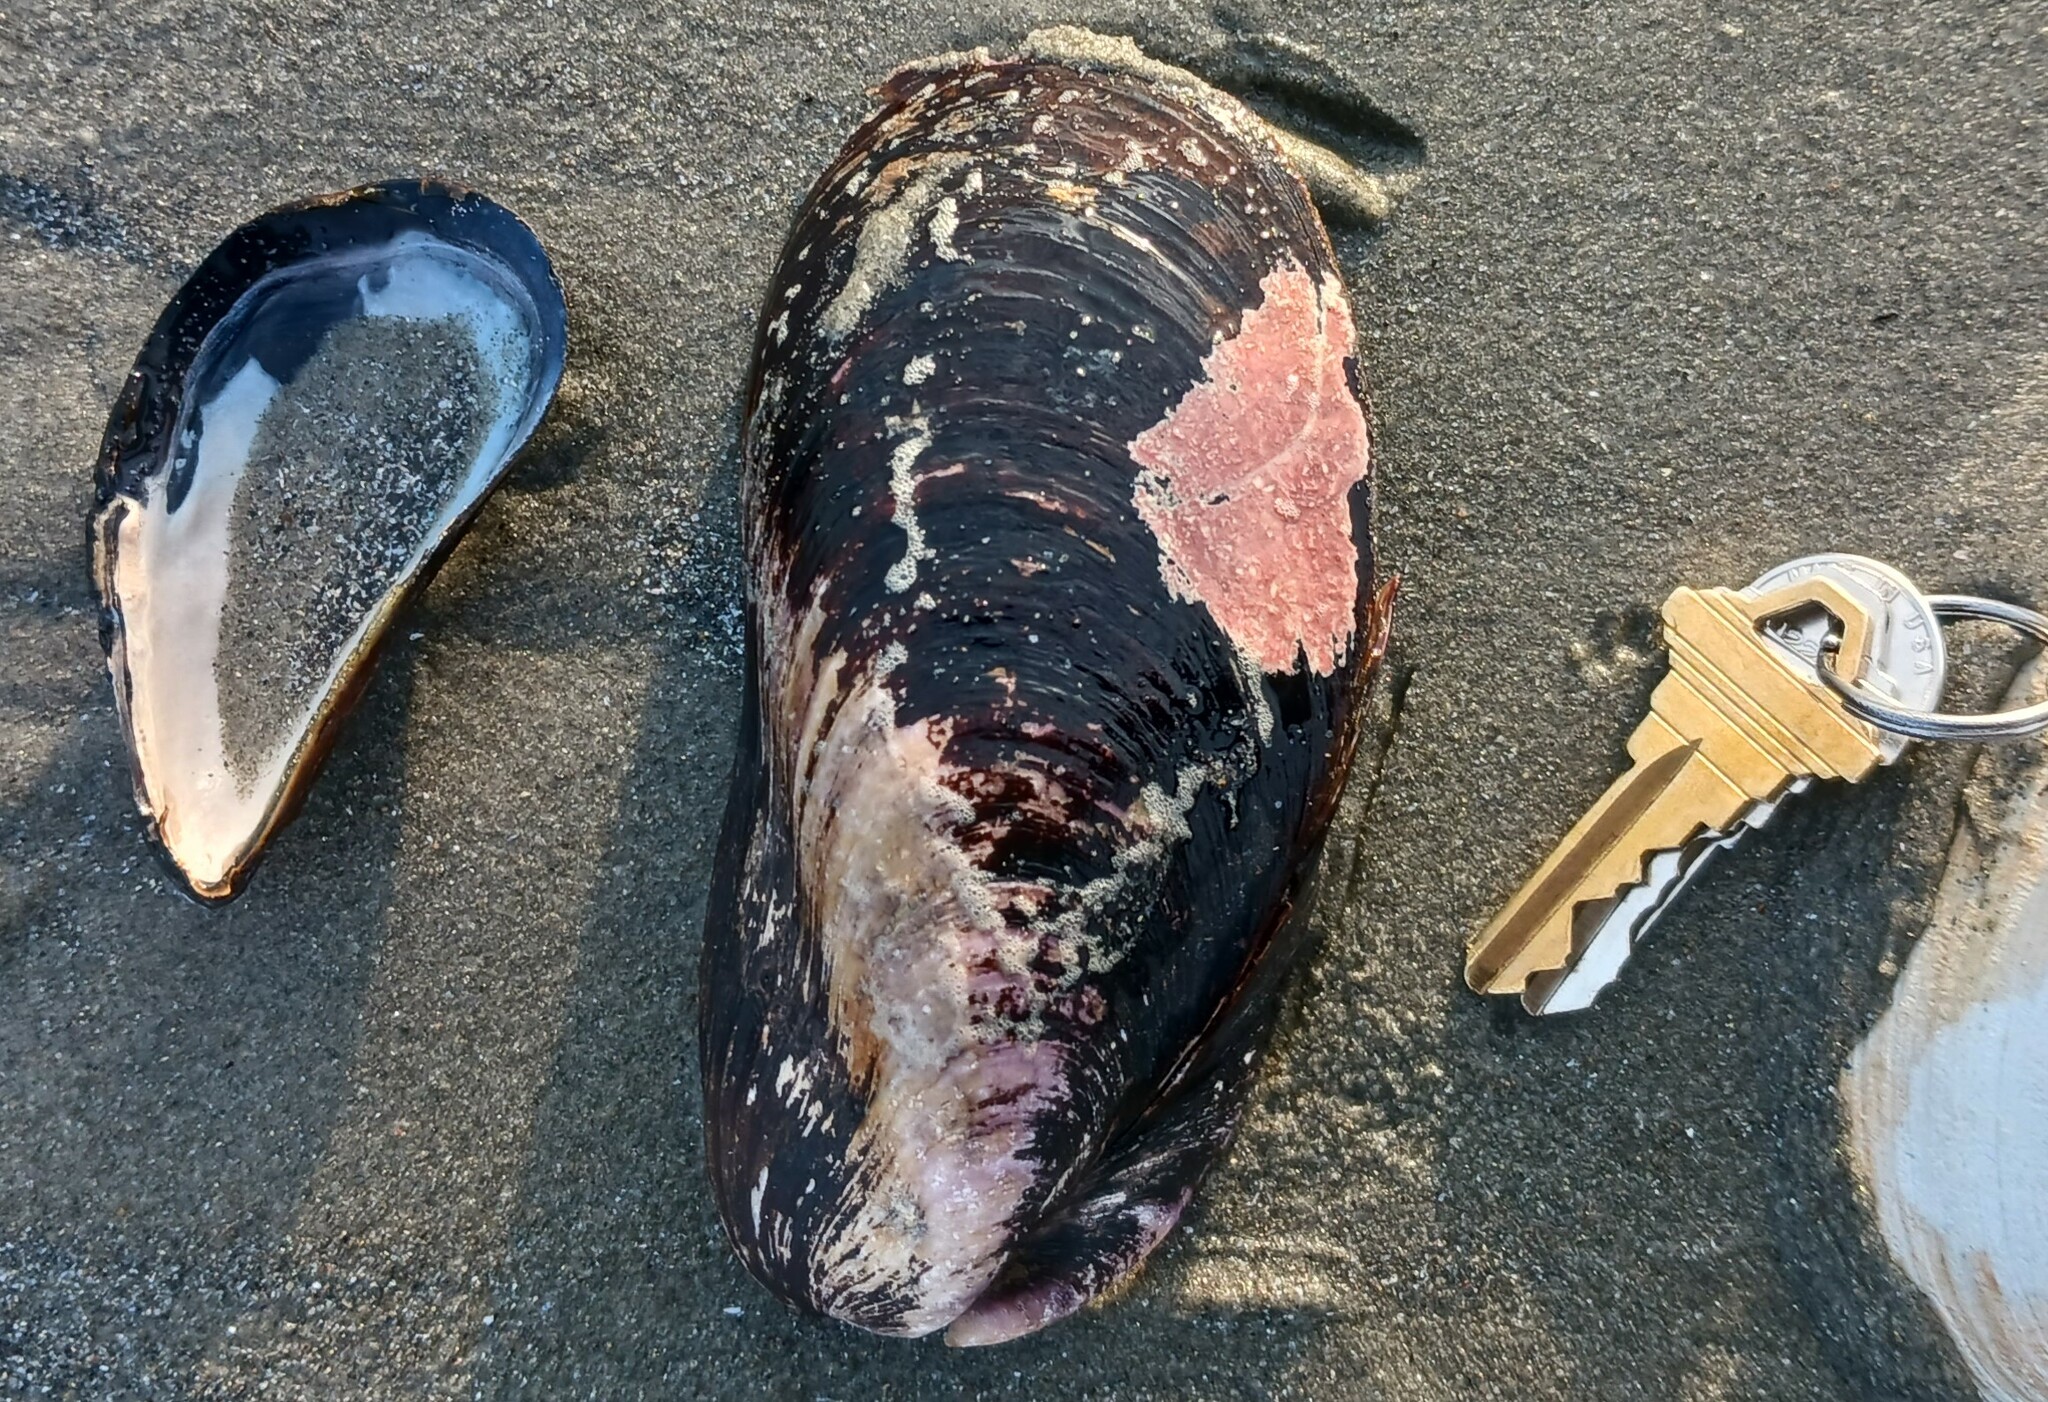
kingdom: Animalia
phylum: Mollusca
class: Bivalvia
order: Mytilida
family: Mytilidae
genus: Modiolus
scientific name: Modiolus modiolus
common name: Horse-mussel
